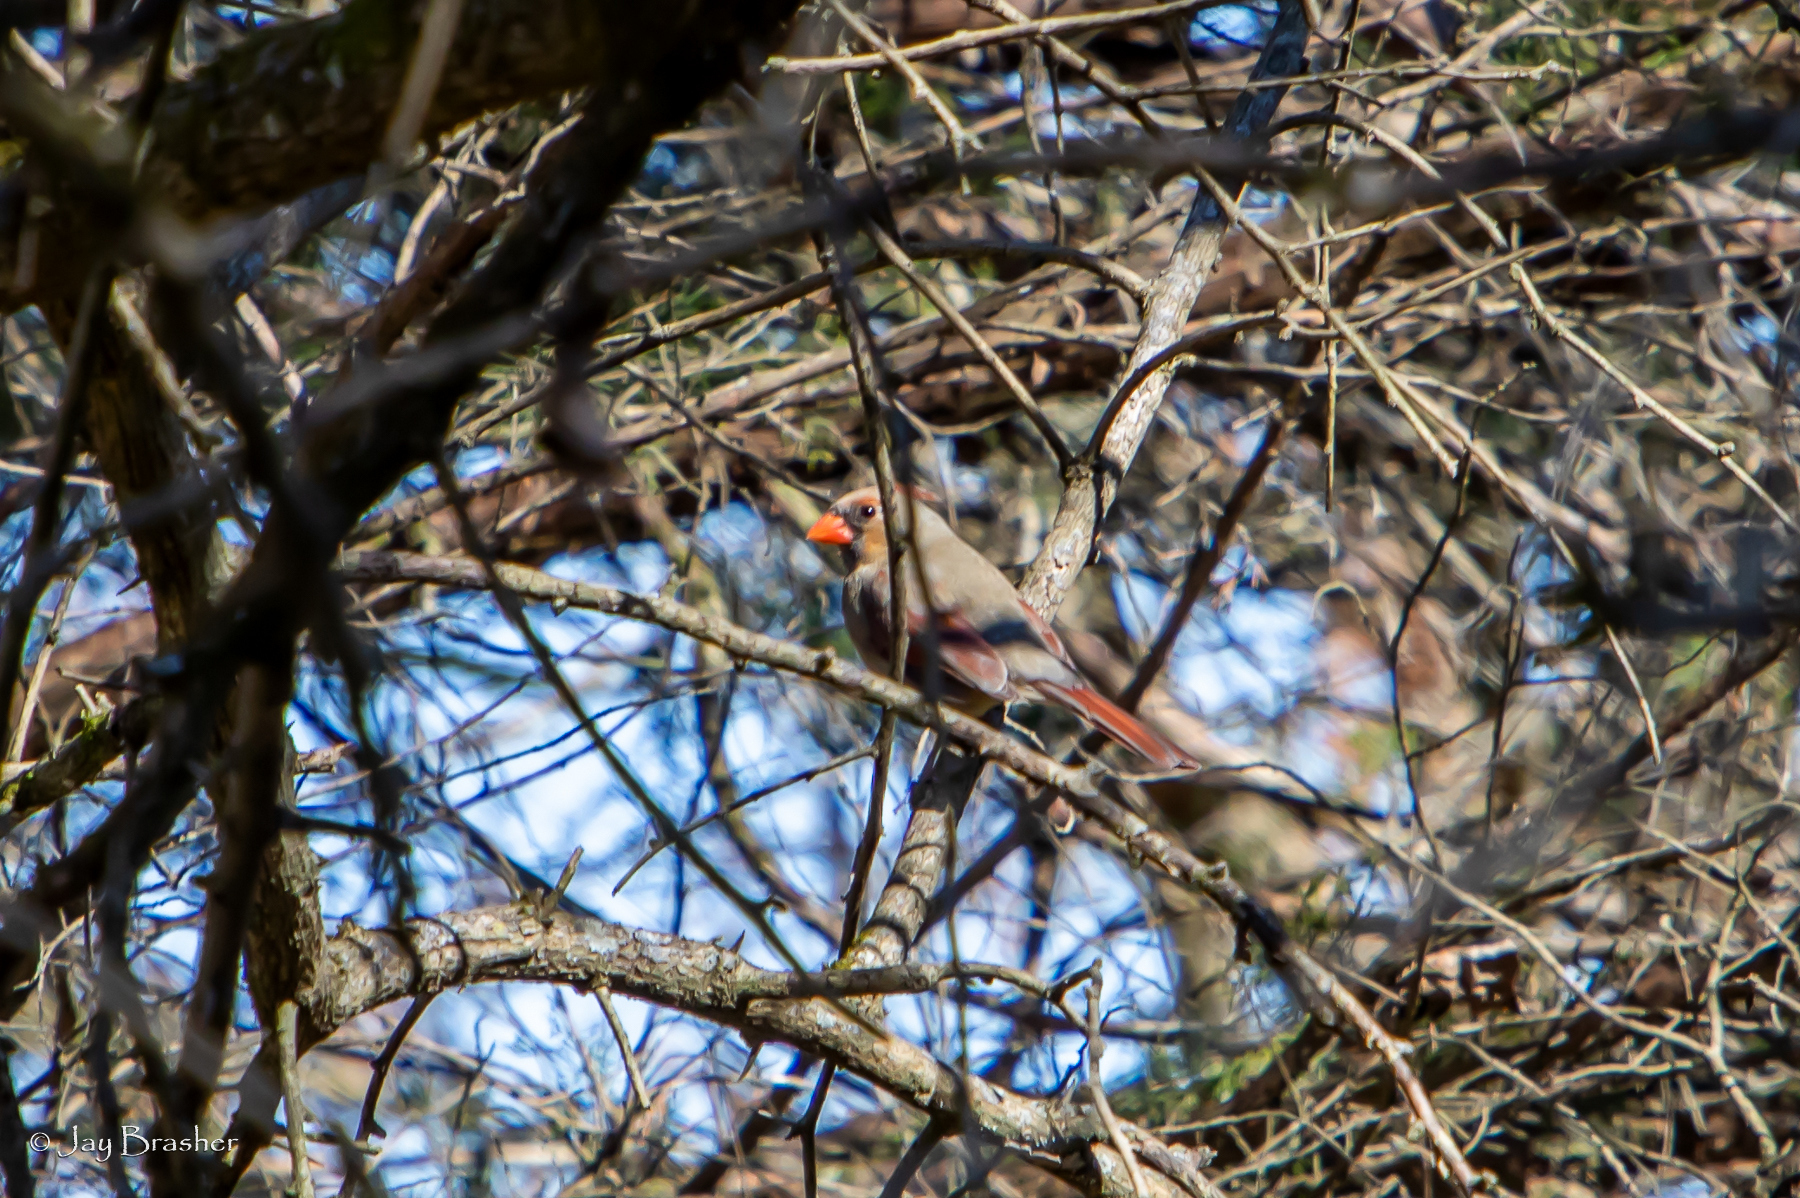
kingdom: Animalia
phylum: Chordata
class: Aves
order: Passeriformes
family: Cardinalidae
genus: Cardinalis
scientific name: Cardinalis cardinalis
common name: Northern cardinal
